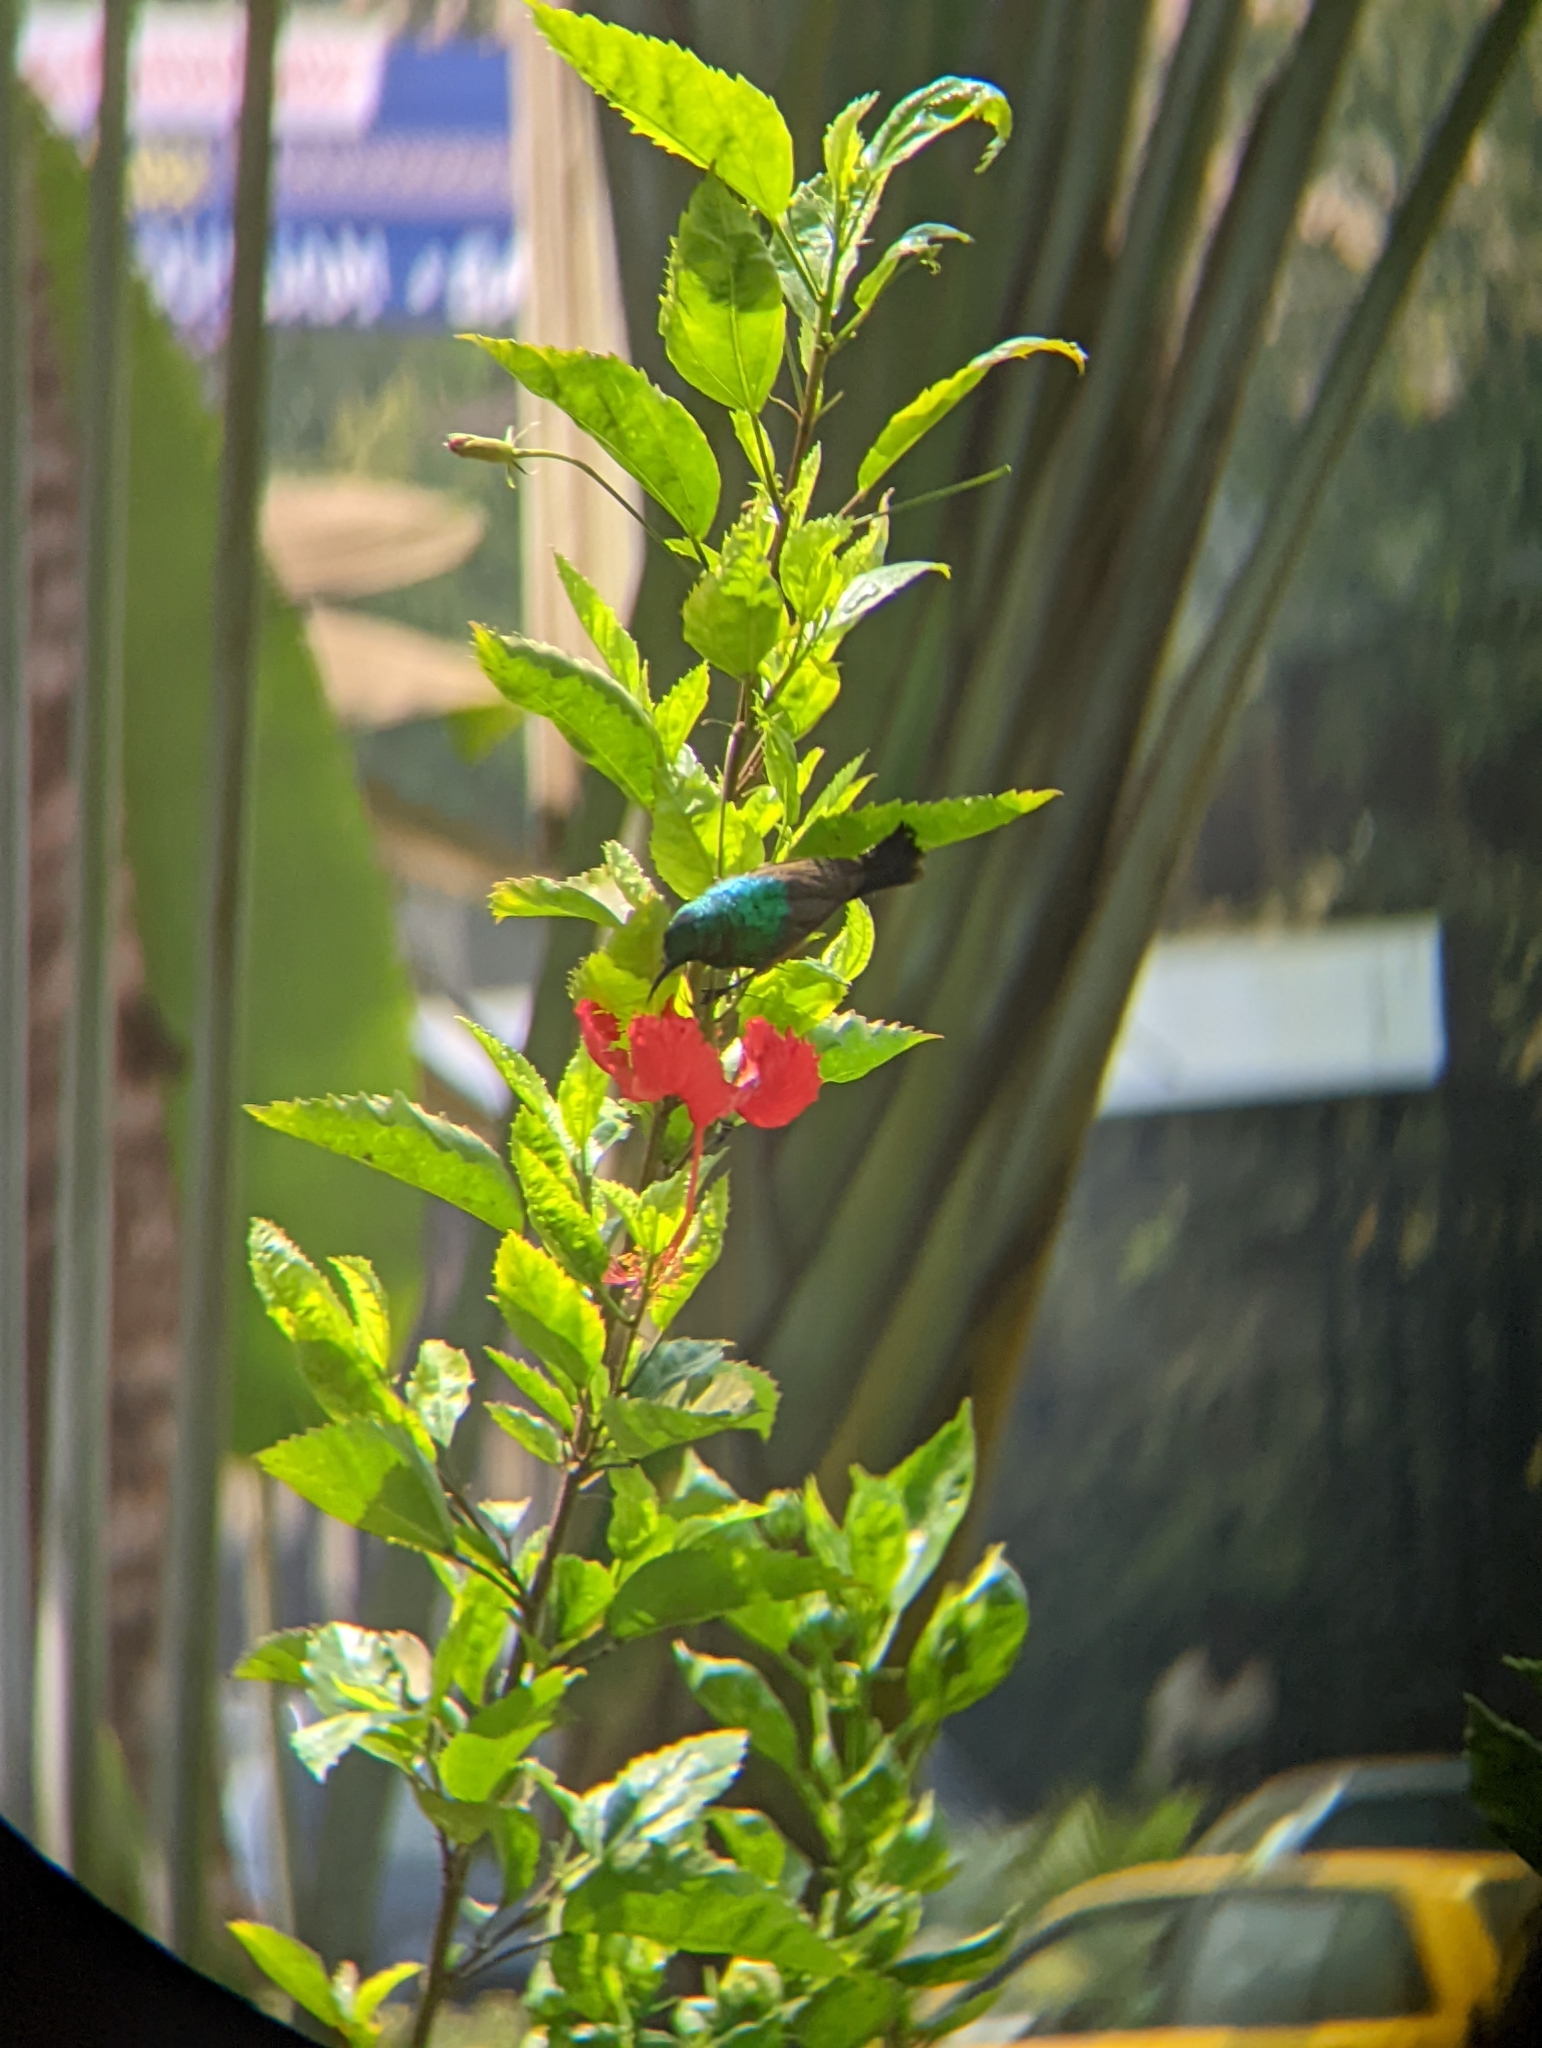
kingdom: Animalia
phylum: Chordata
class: Aves
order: Passeriformes
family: Nectariniidae
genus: Cinnyris
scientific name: Cinnyris reichenowi
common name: Northern double-collared sunbird
